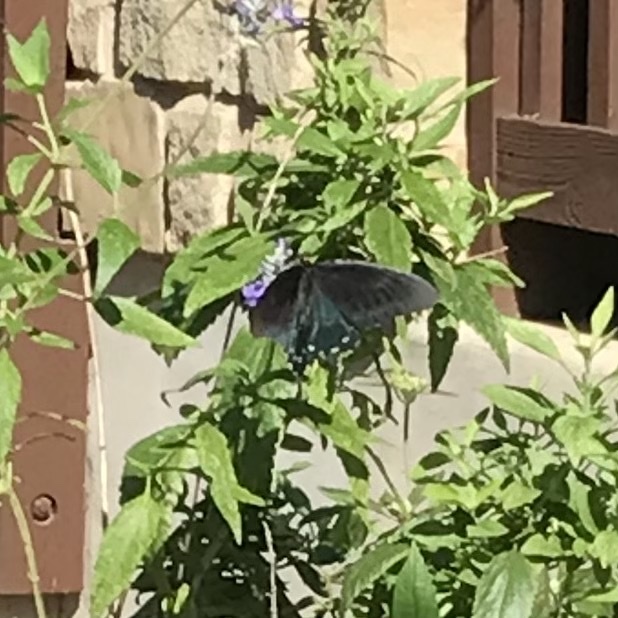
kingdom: Animalia
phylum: Arthropoda
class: Insecta
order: Lepidoptera
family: Papilionidae
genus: Battus
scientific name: Battus philenor
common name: Pipevine swallowtail
